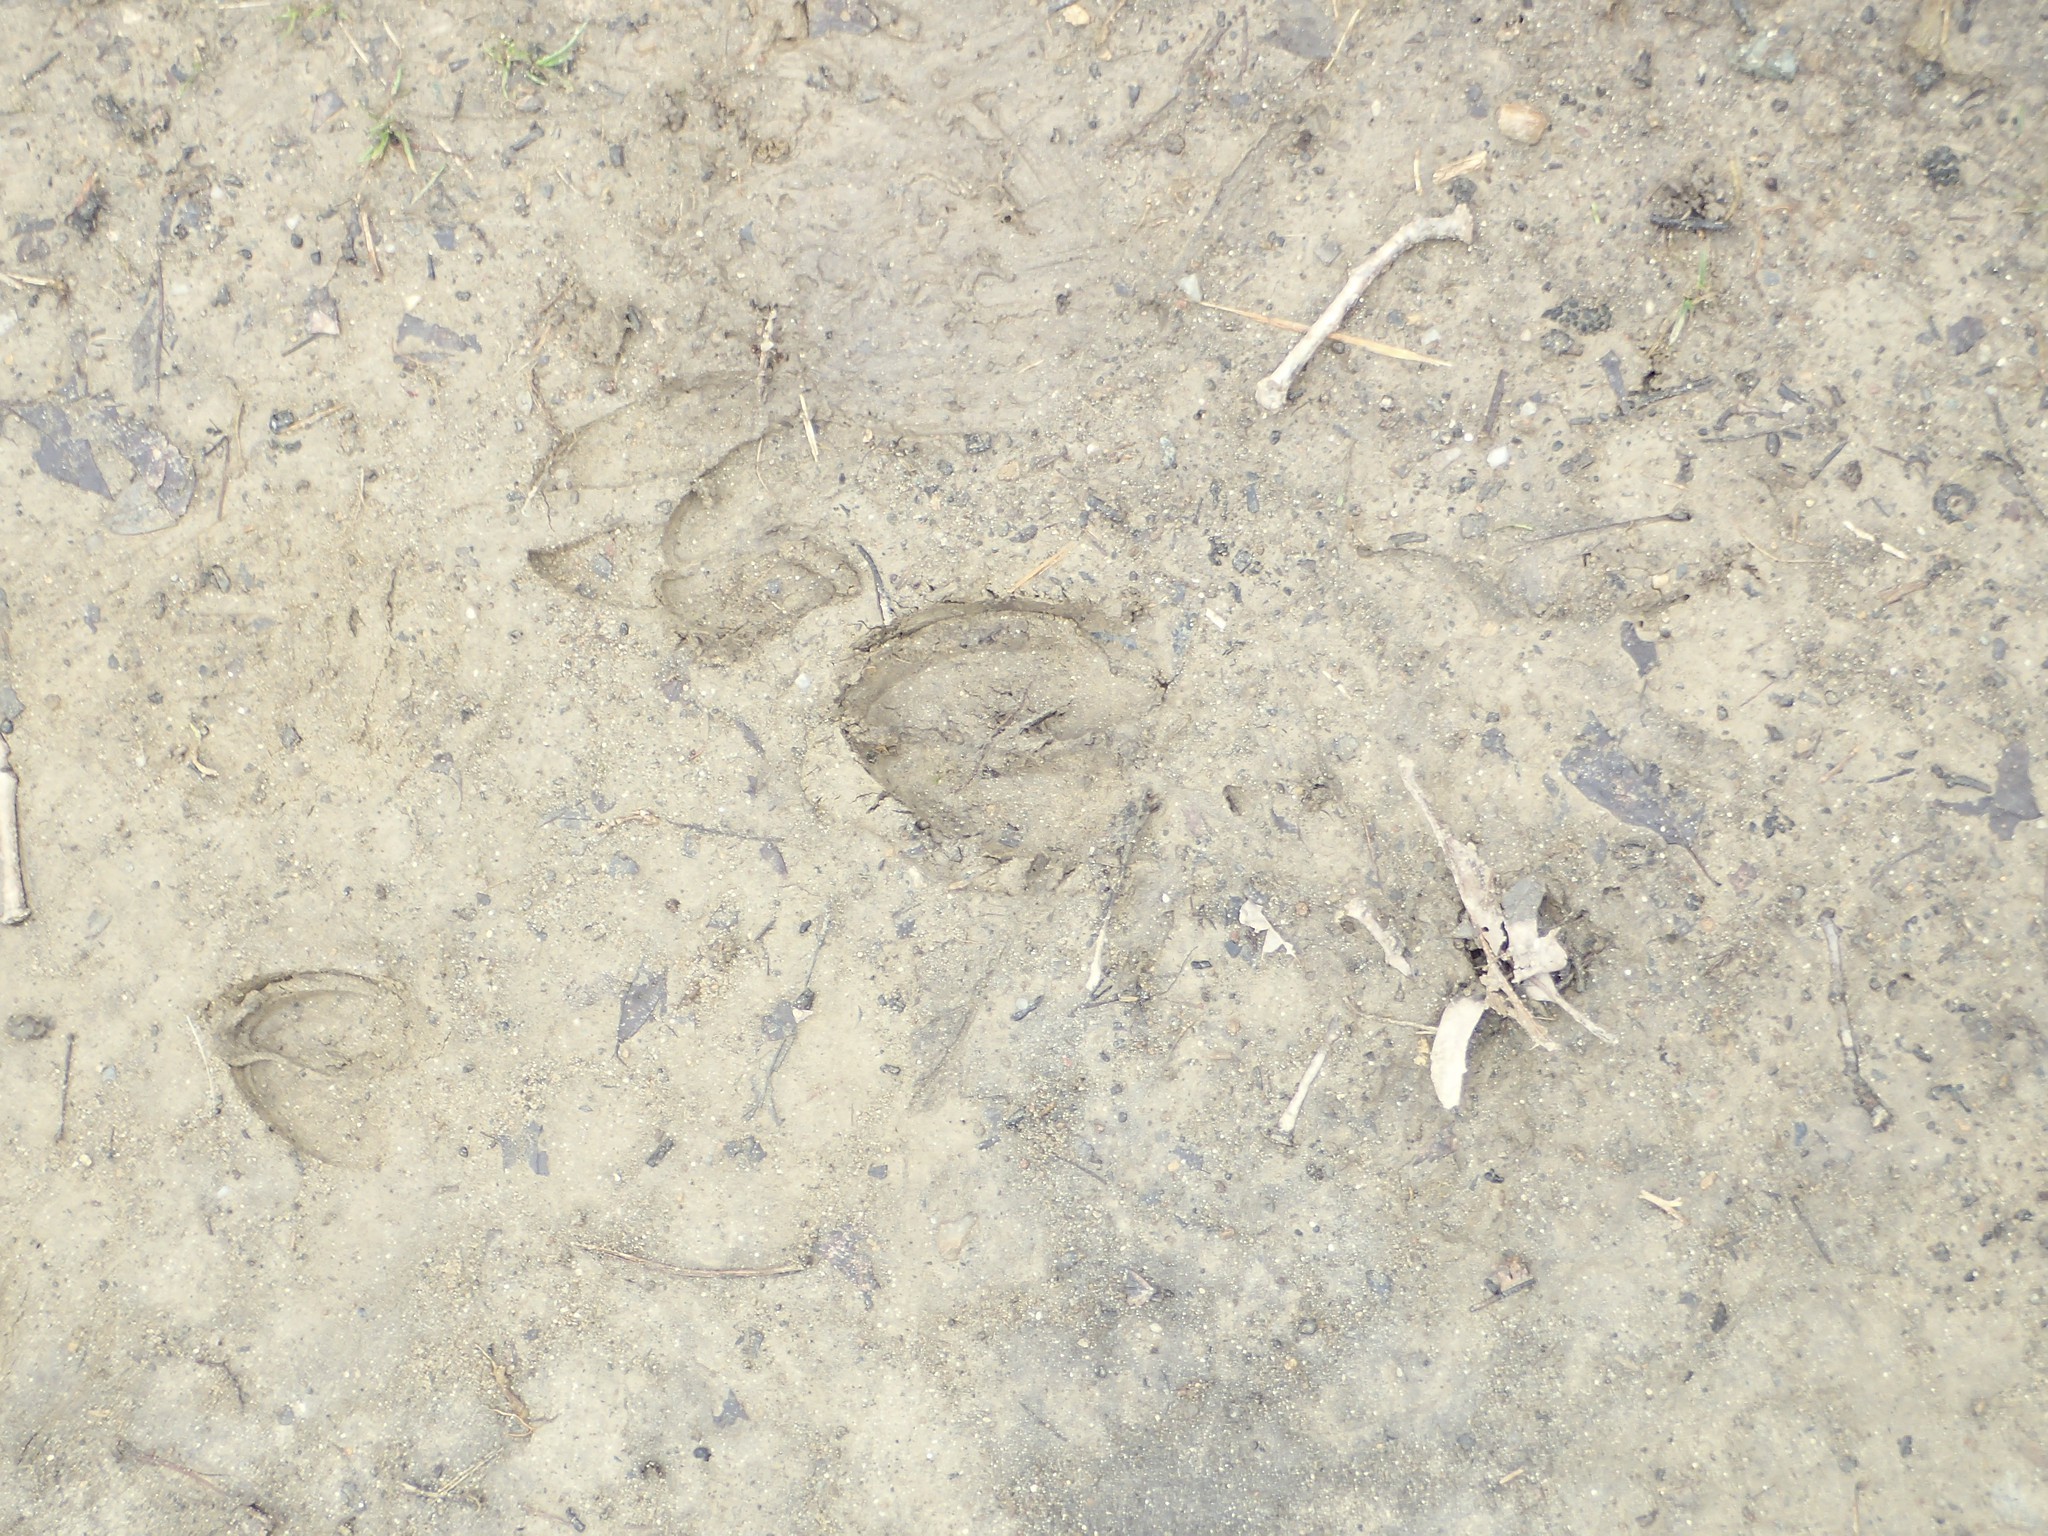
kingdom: Animalia
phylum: Chordata
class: Mammalia
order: Artiodactyla
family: Cervidae
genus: Odocoileus
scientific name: Odocoileus virginianus
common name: White-tailed deer
